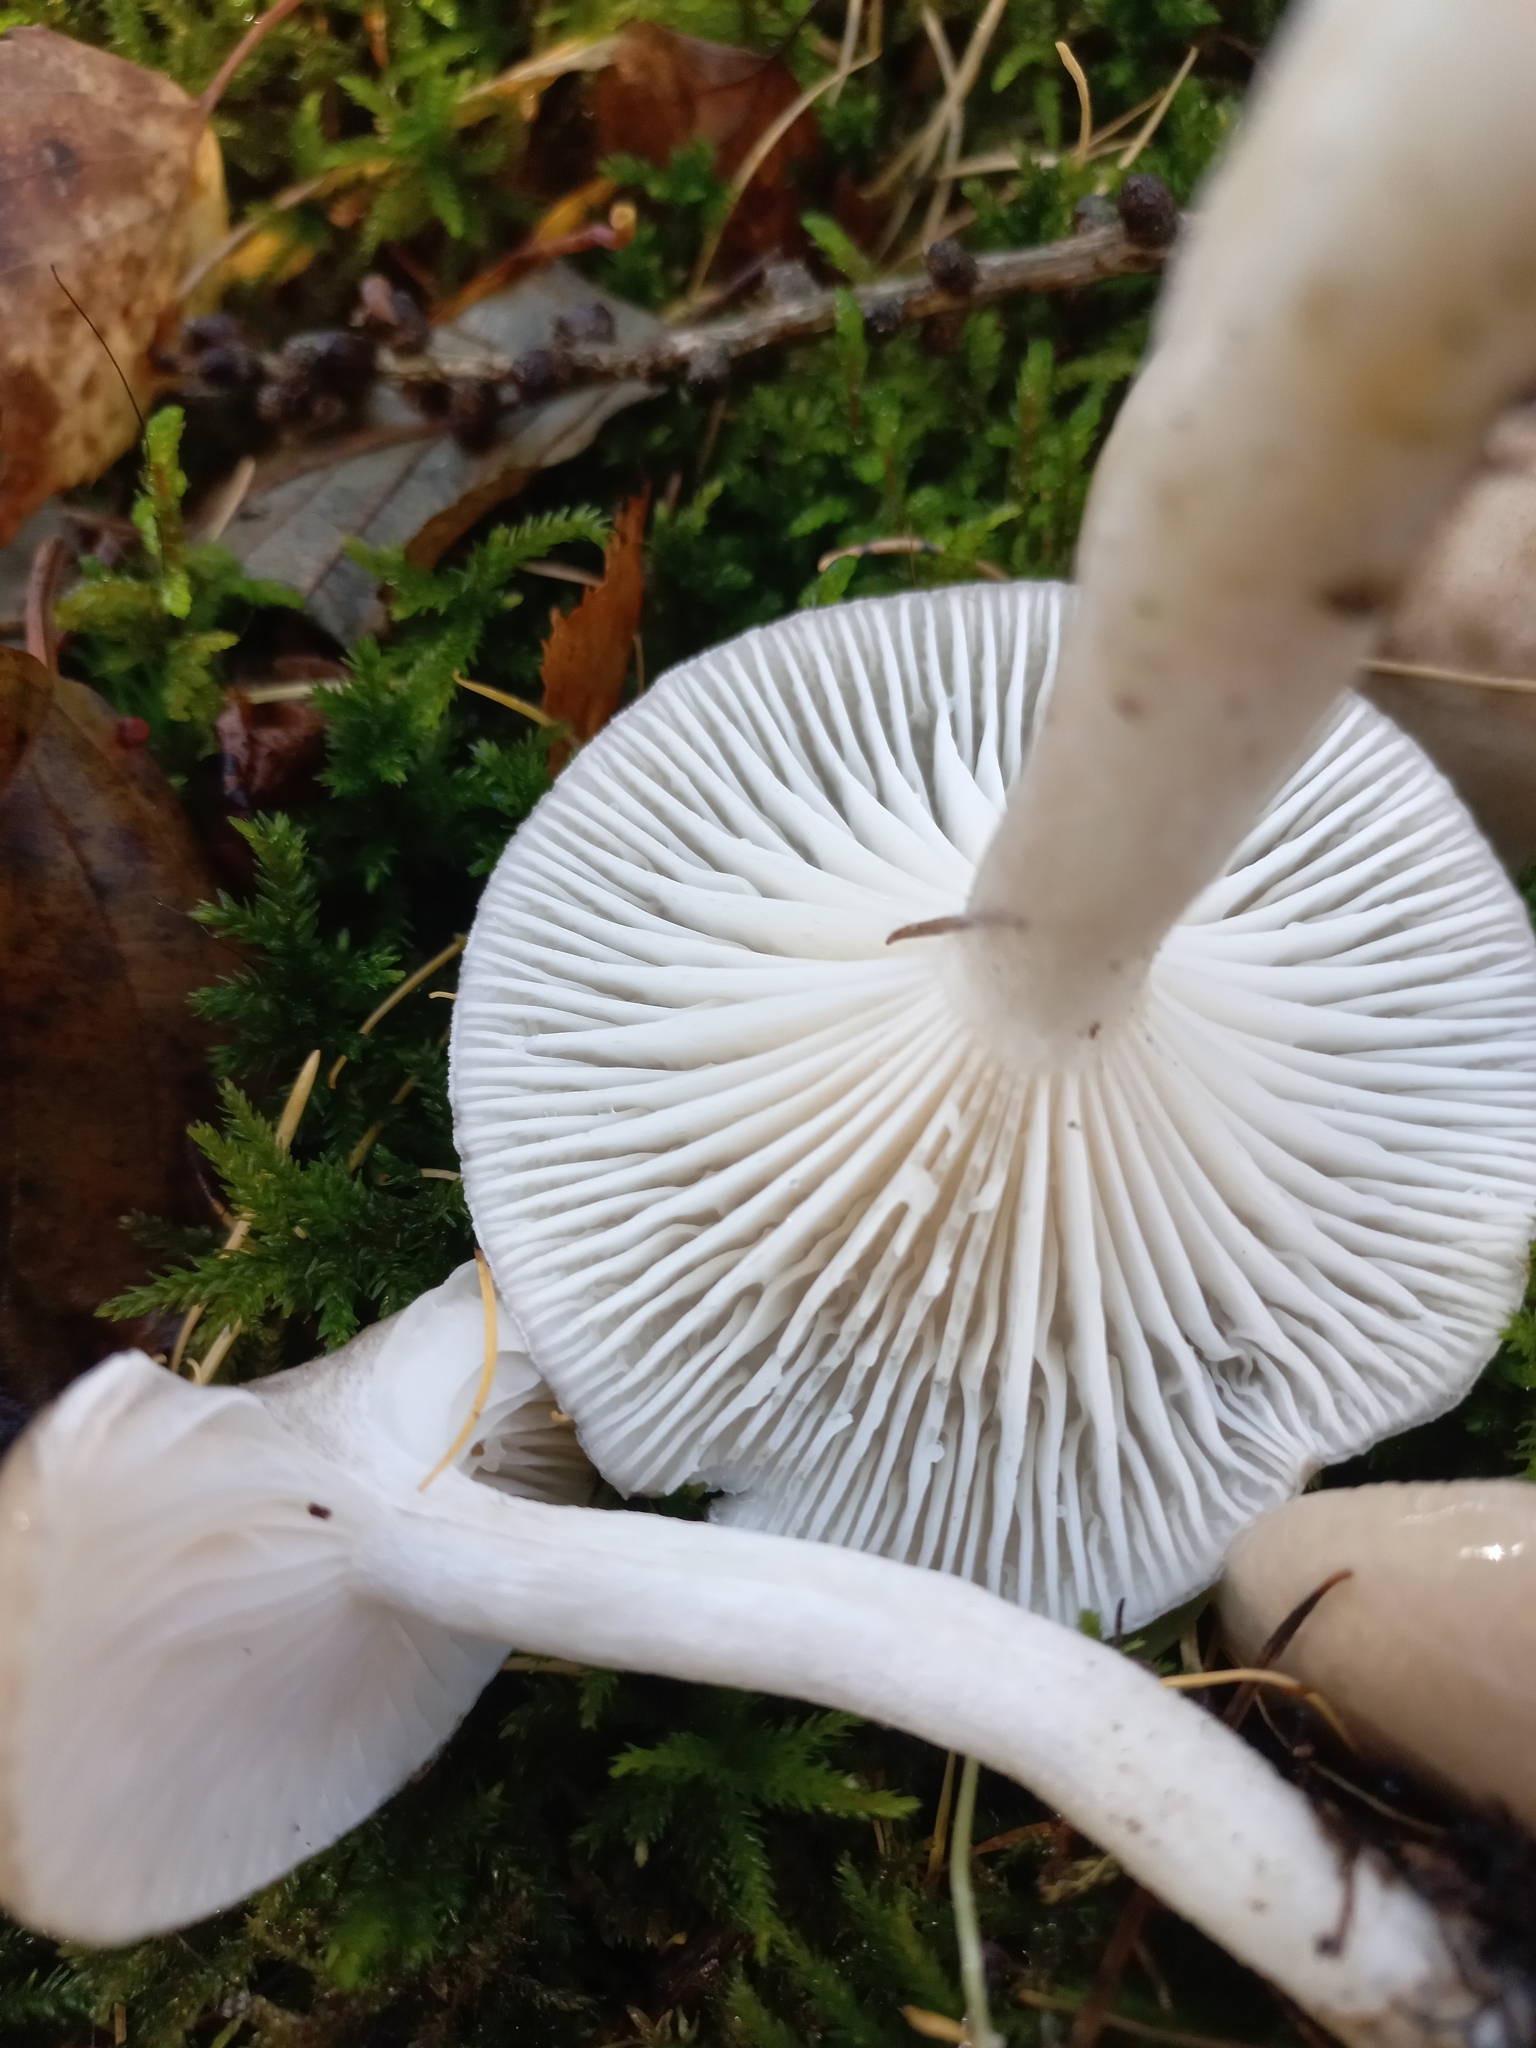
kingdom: Fungi
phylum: Basidiomycota
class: Agaricomycetes
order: Agaricales
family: Hygrophoraceae
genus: Hygrophorus
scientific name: Hygrophorus agathosmus
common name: Almond woodwax
